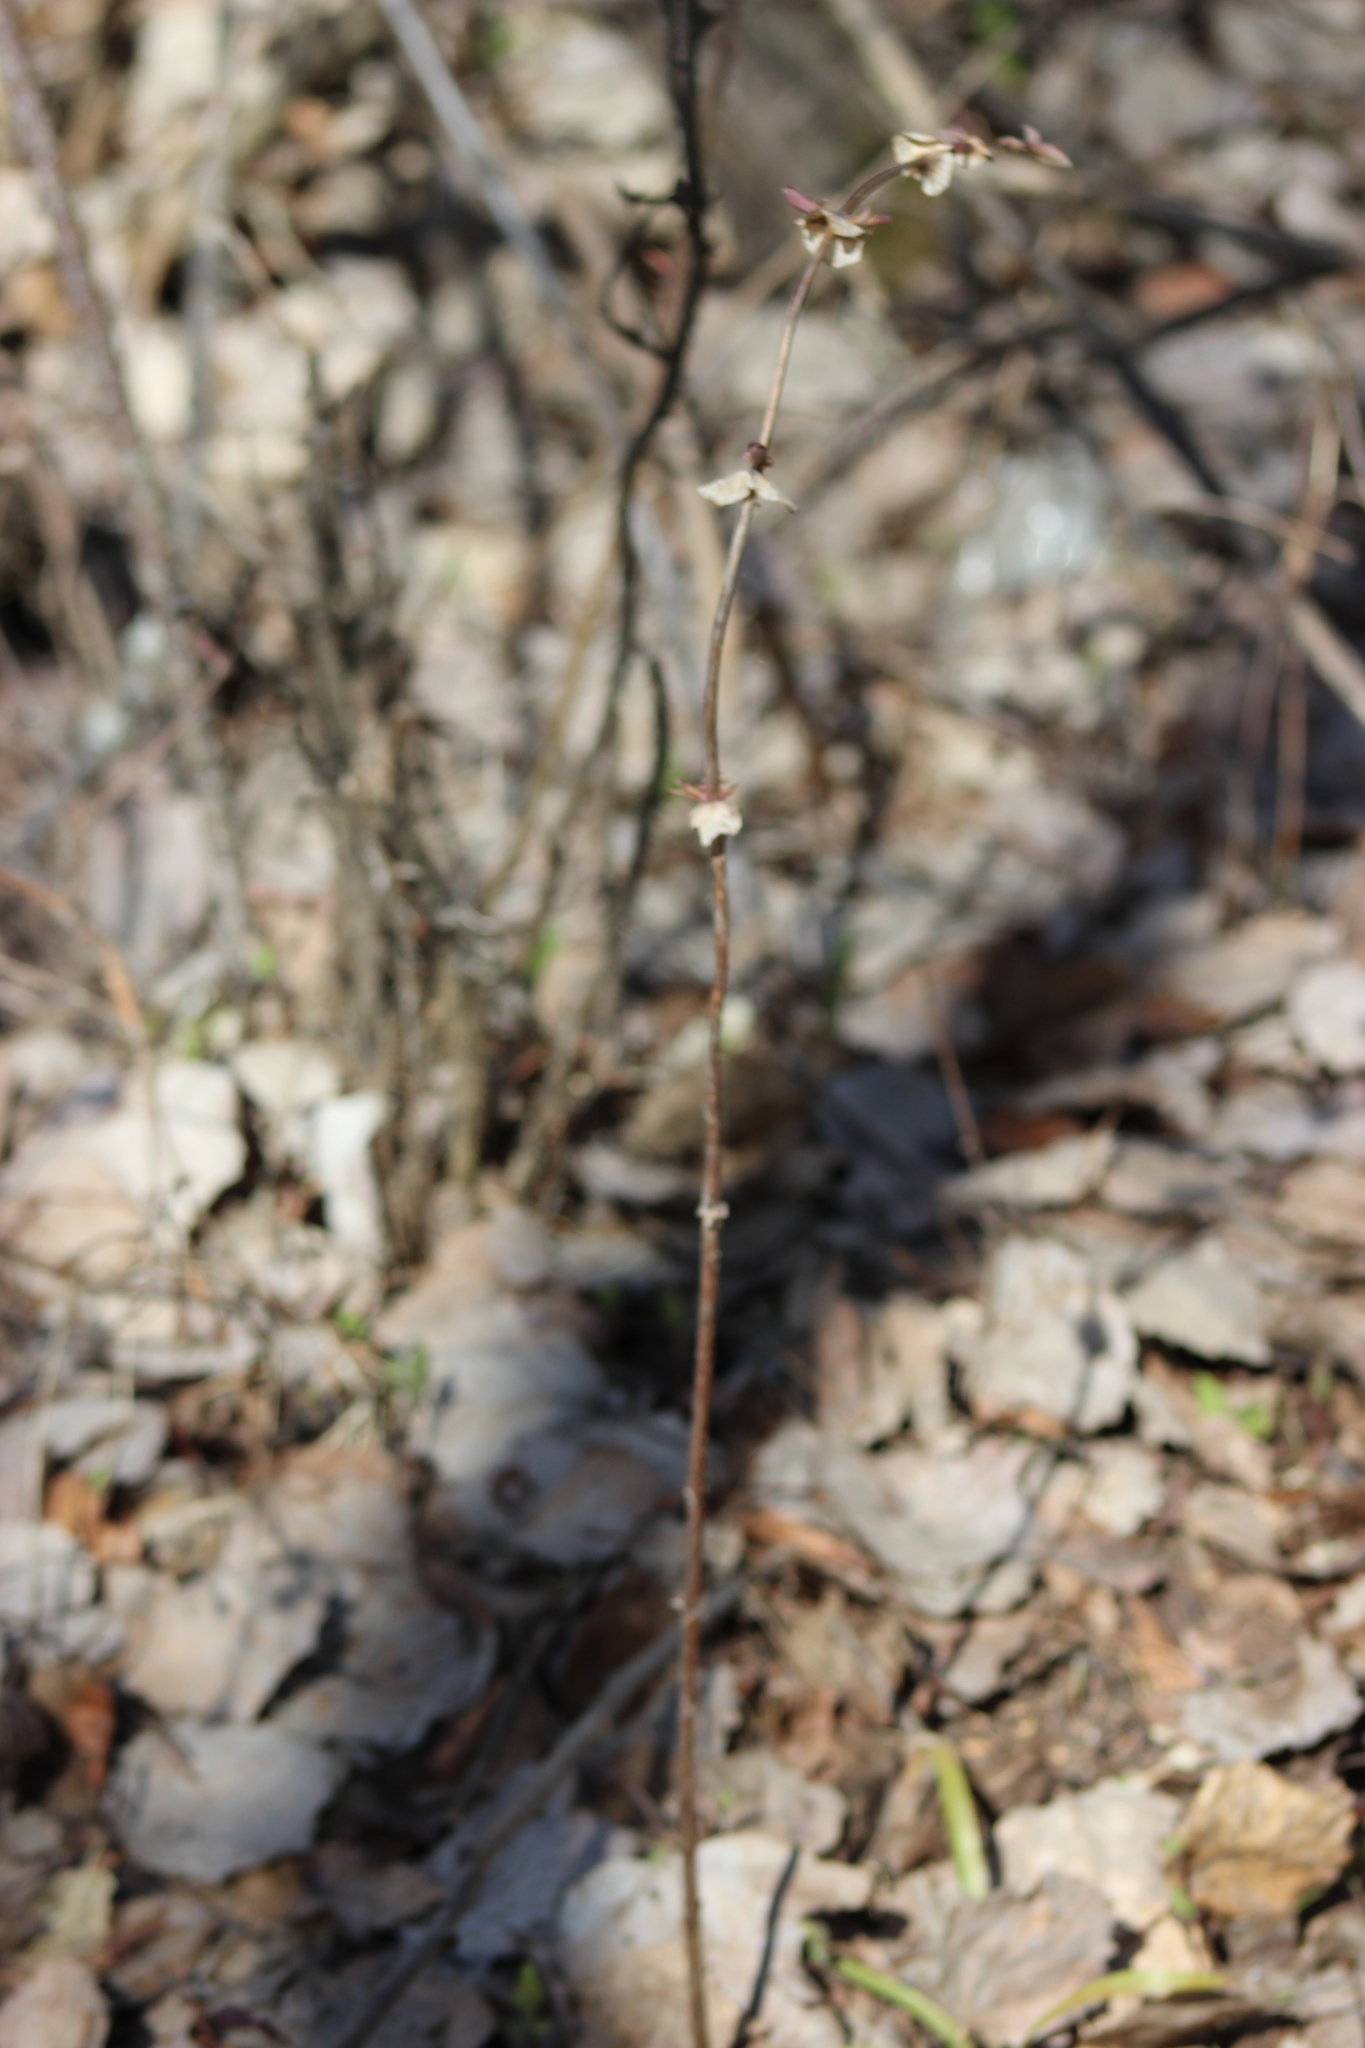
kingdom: Plantae
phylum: Tracheophyta
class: Magnoliopsida
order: Dipsacales
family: Caprifoliaceae
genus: Lonicera
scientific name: Lonicera caerulea
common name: Blue honeysuckle
